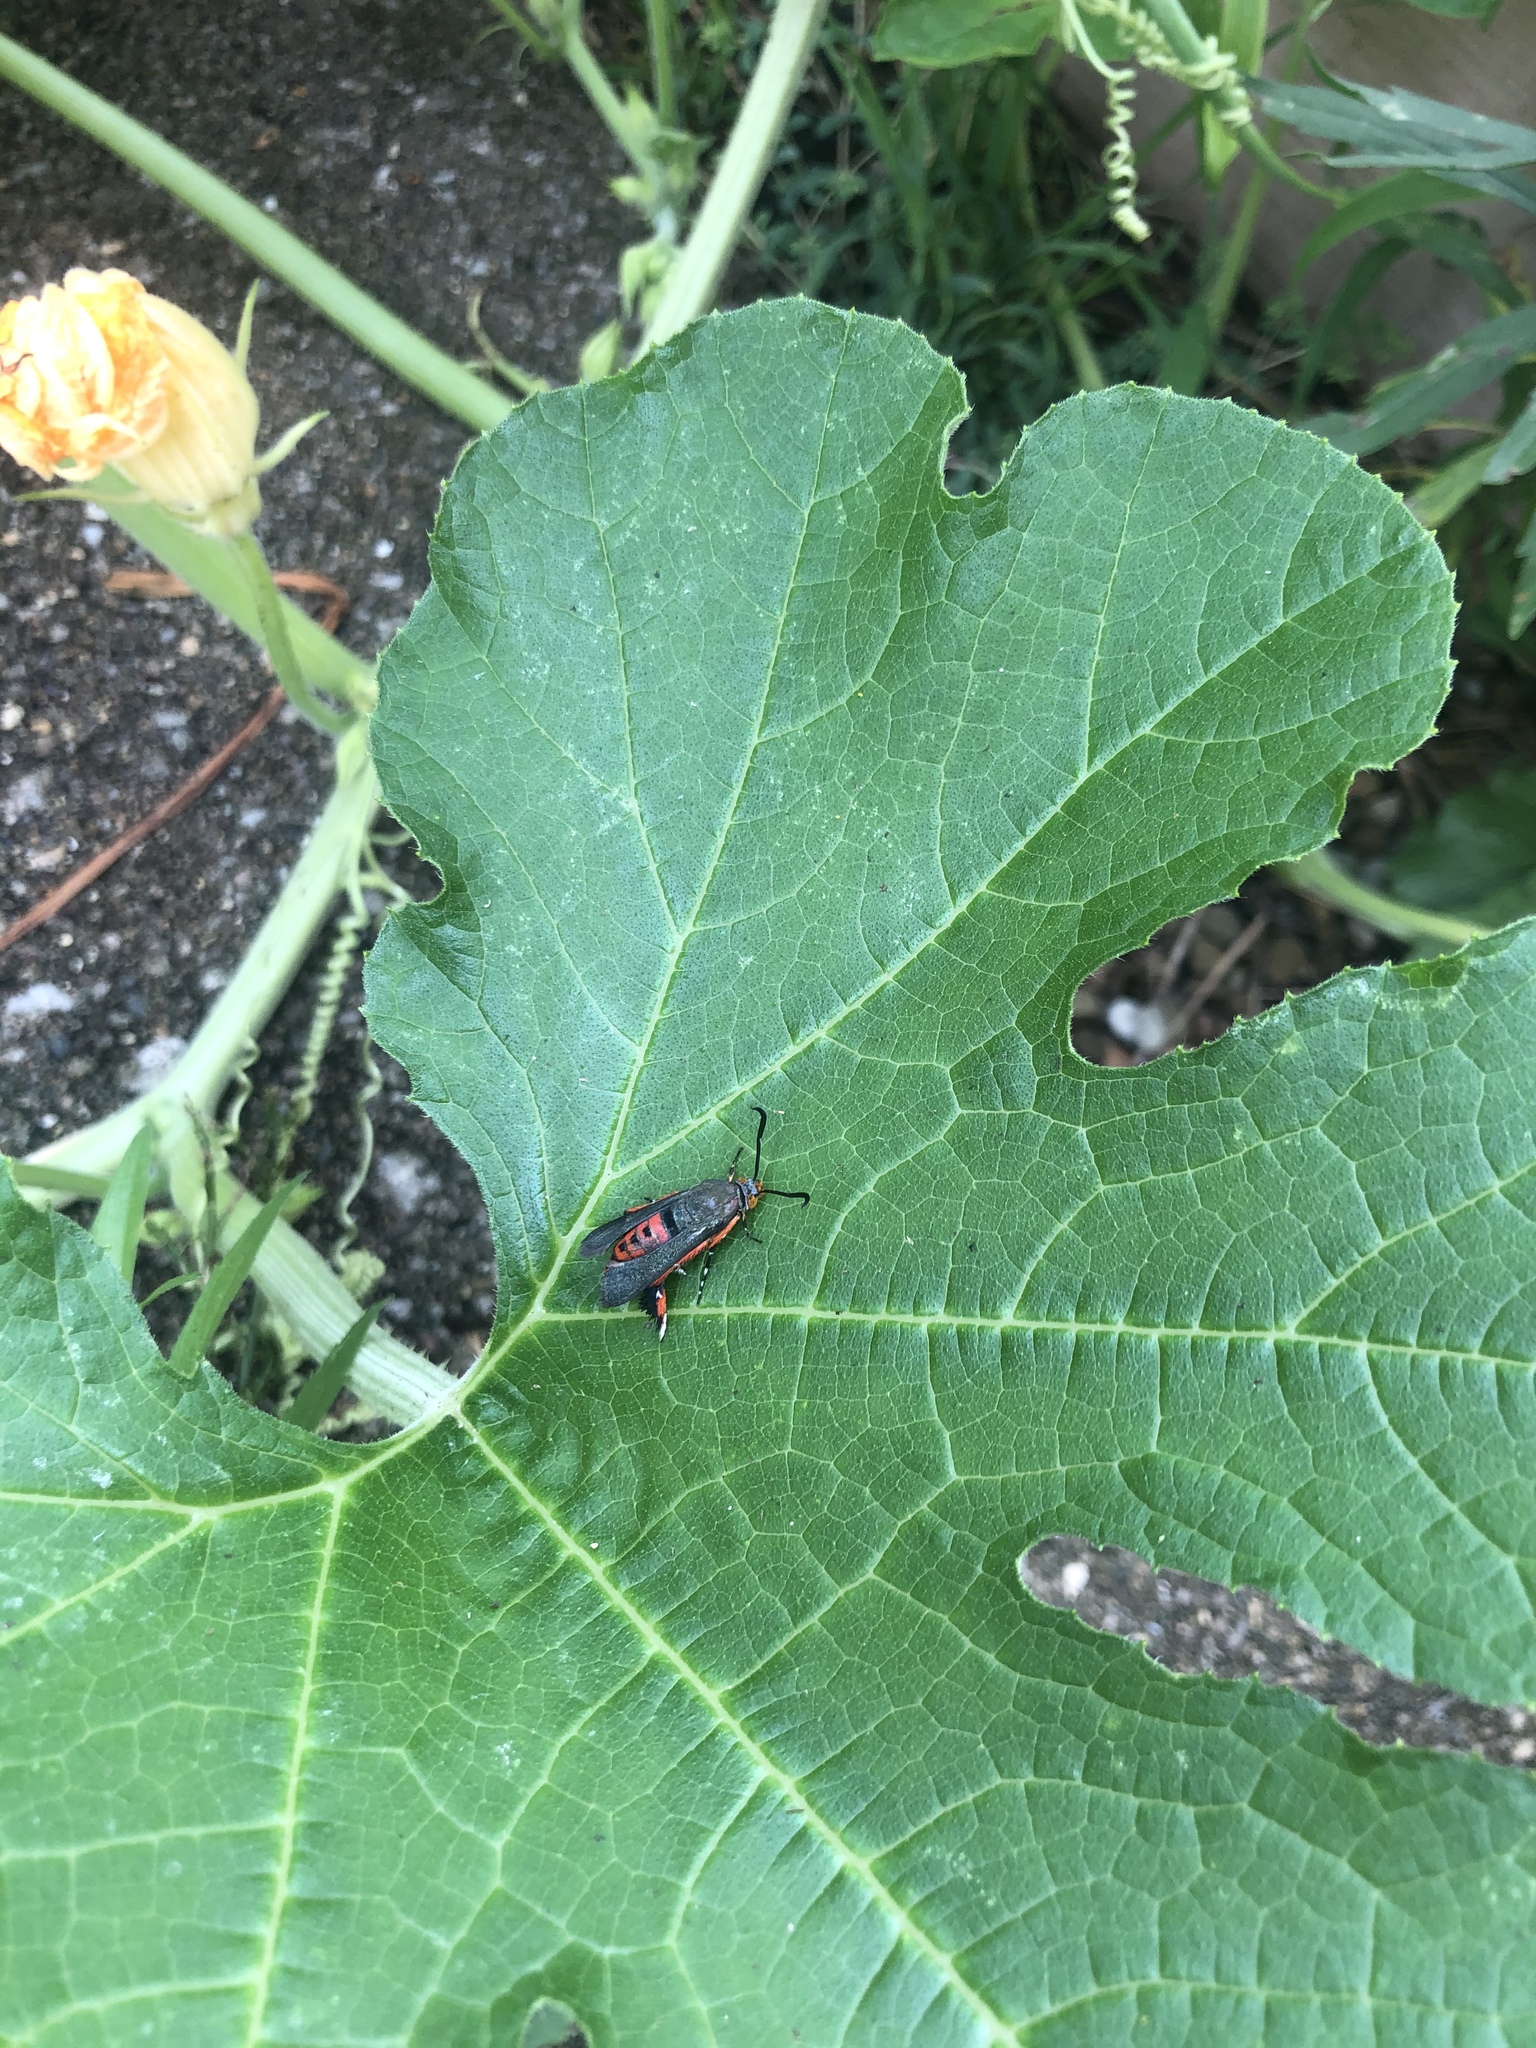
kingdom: Animalia
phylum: Arthropoda
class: Insecta
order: Lepidoptera
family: Sesiidae
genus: Eichlinia
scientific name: Eichlinia cucurbitae
